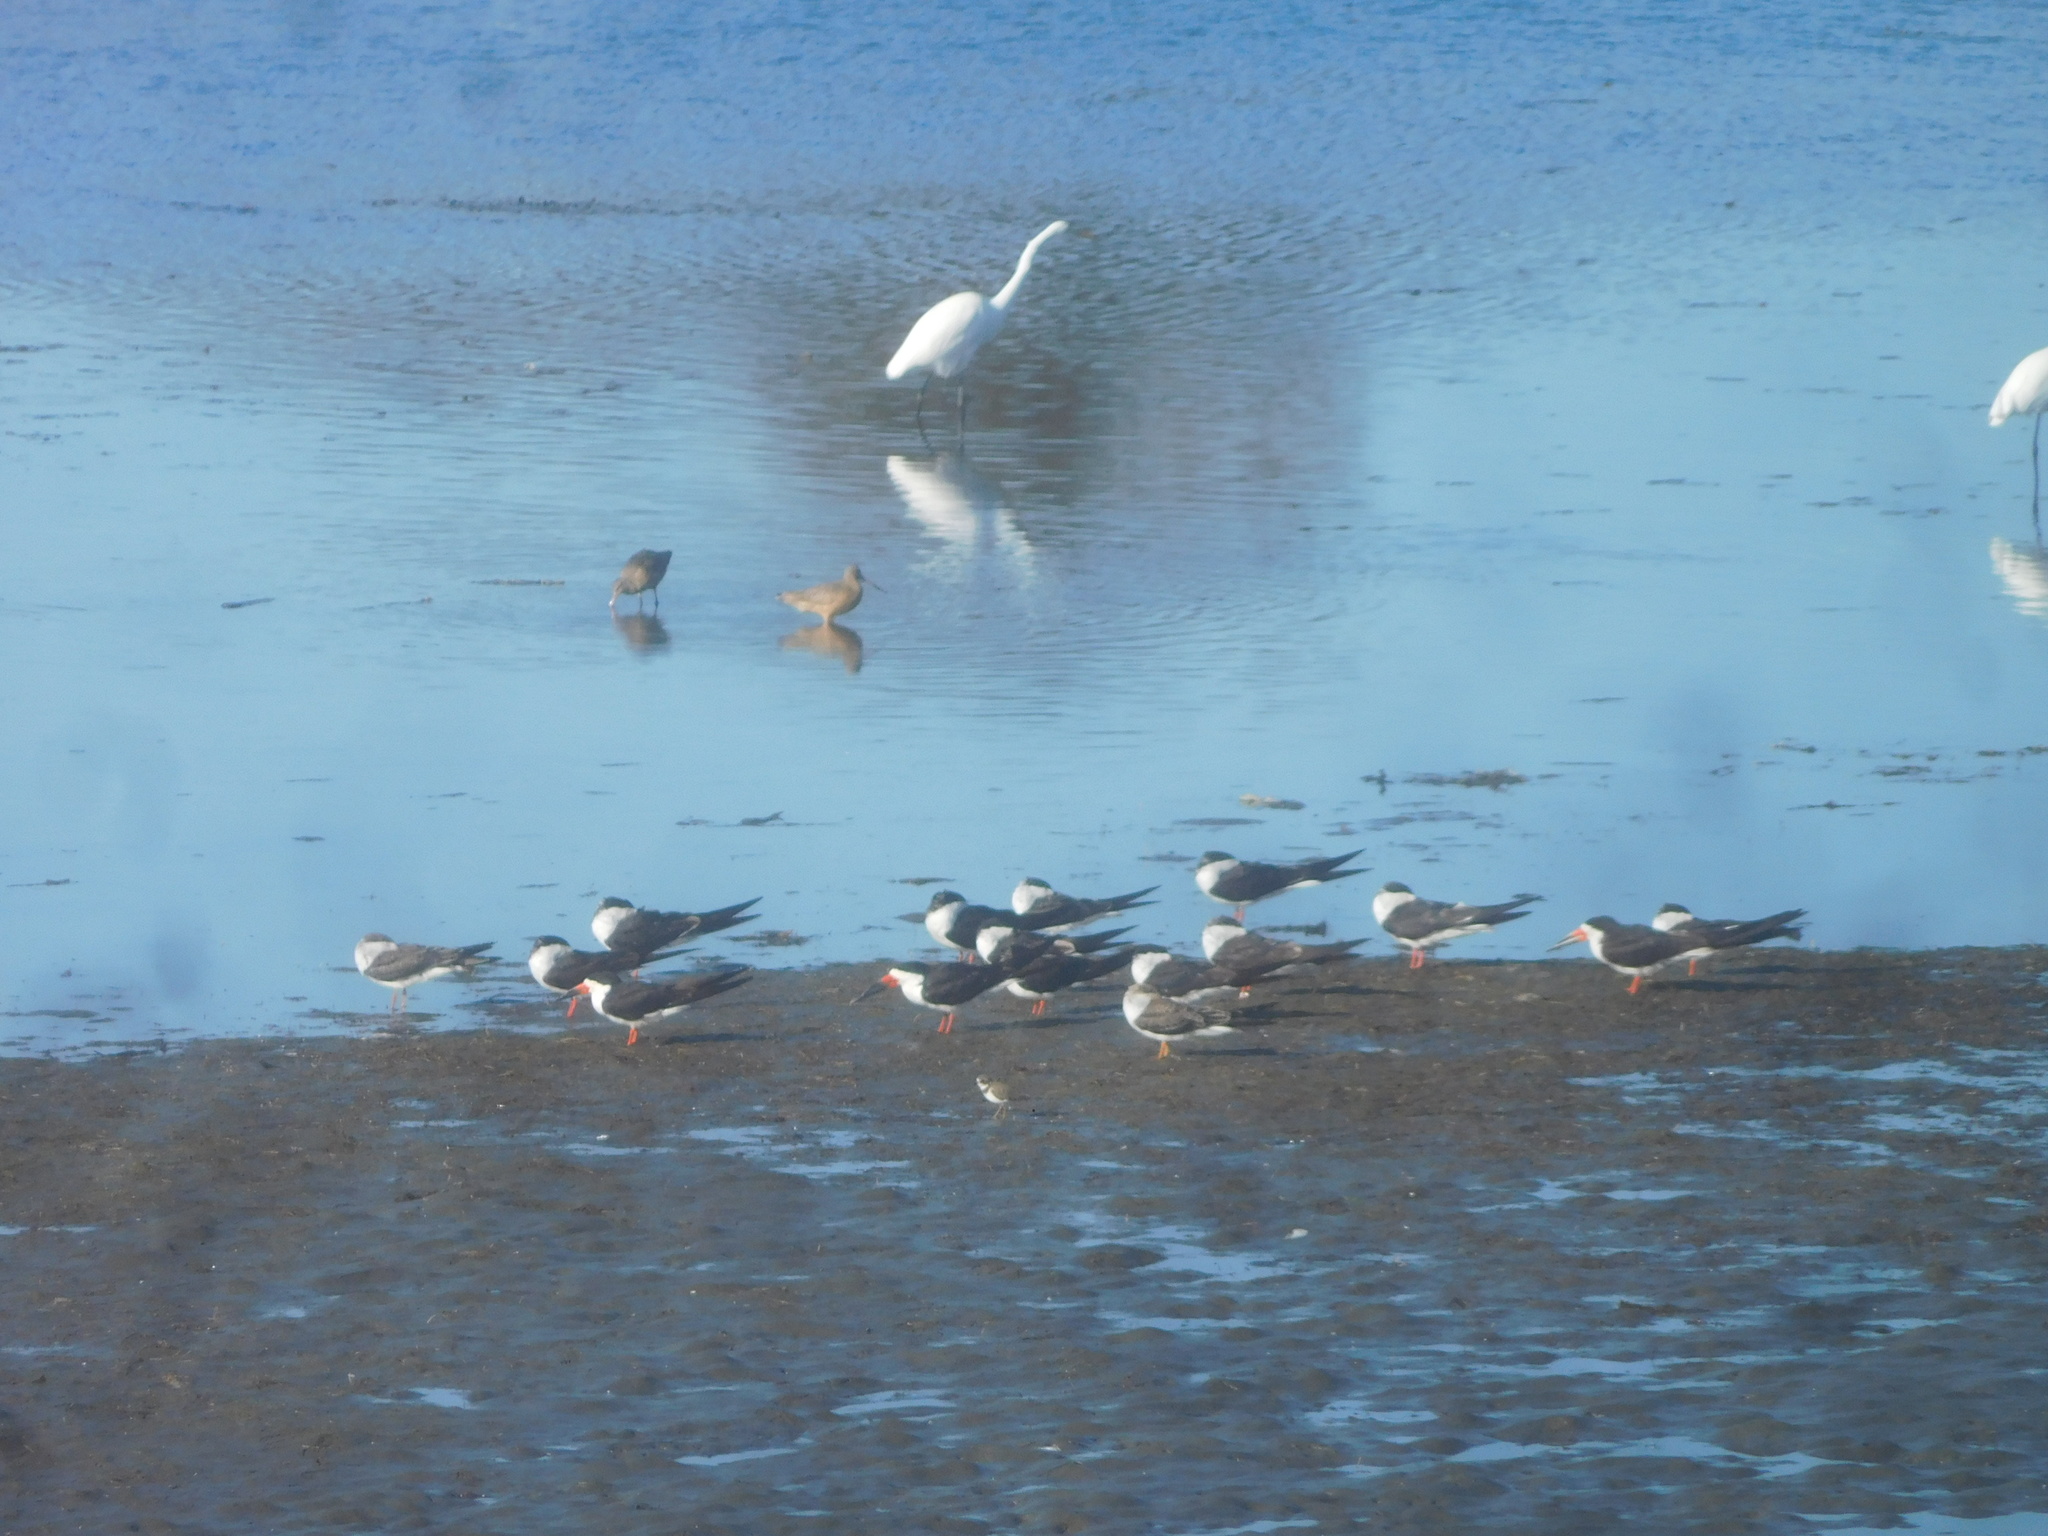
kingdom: Animalia
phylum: Chordata
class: Aves
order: Charadriiformes
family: Laridae
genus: Rynchops
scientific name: Rynchops niger
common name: Black skimmer
